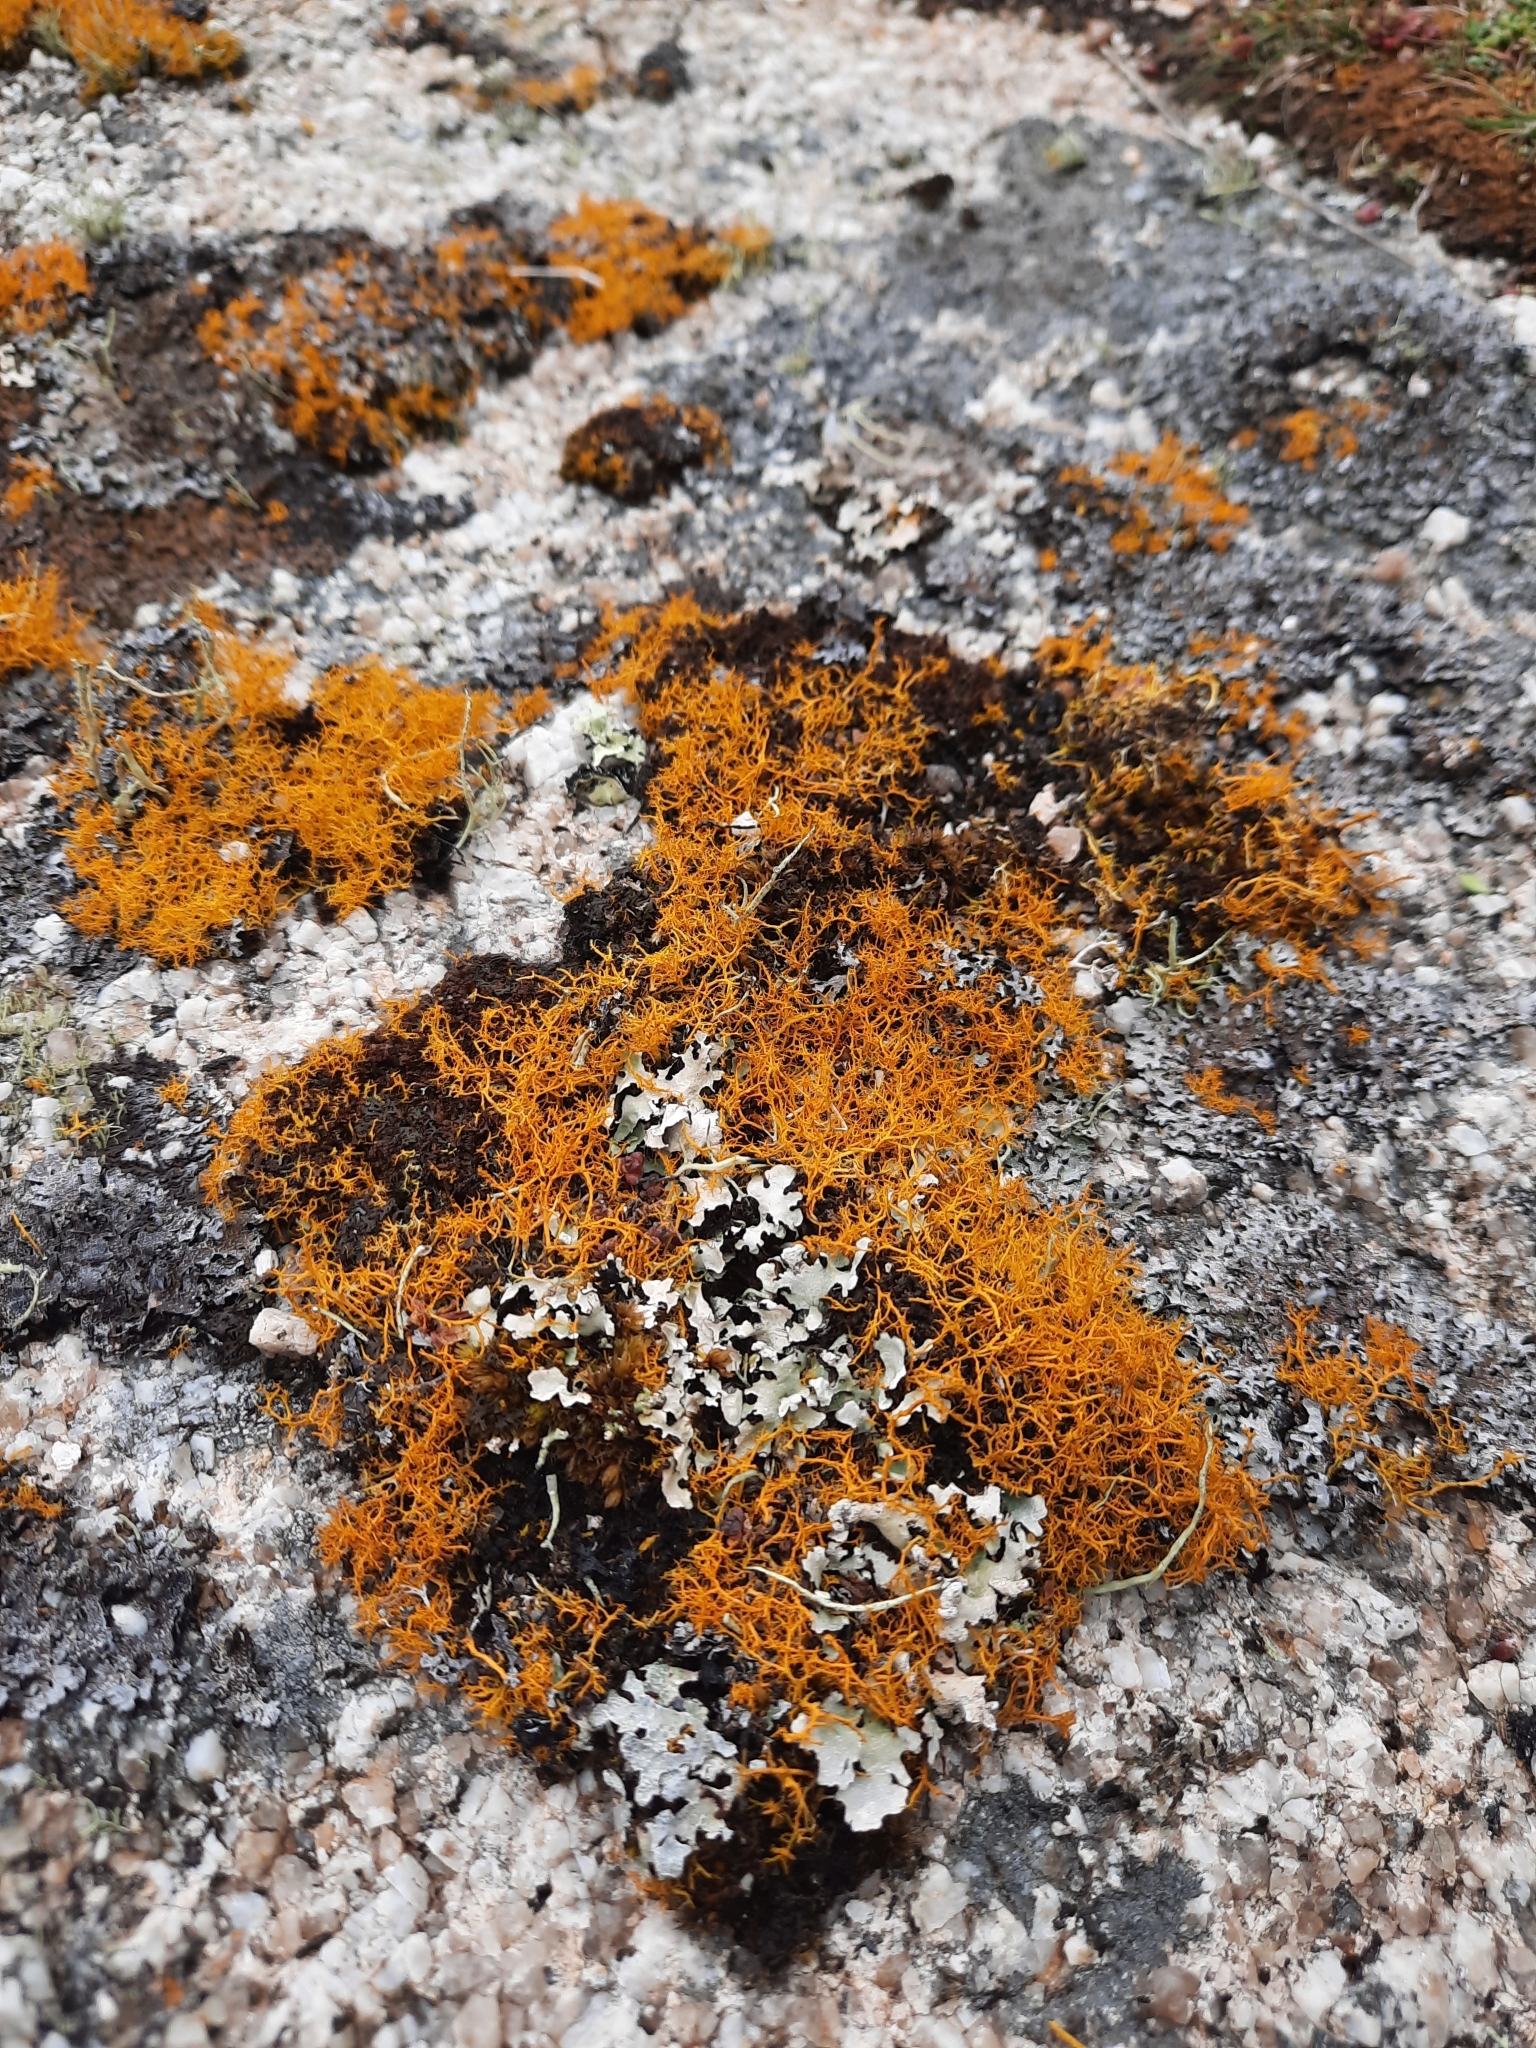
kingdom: Fungi
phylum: Ascomycota
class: Lecanoromycetes
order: Teloschistales
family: Teloschistaceae
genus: Teloschistes
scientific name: Teloschistes flavicans
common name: Golden hair-lichen
